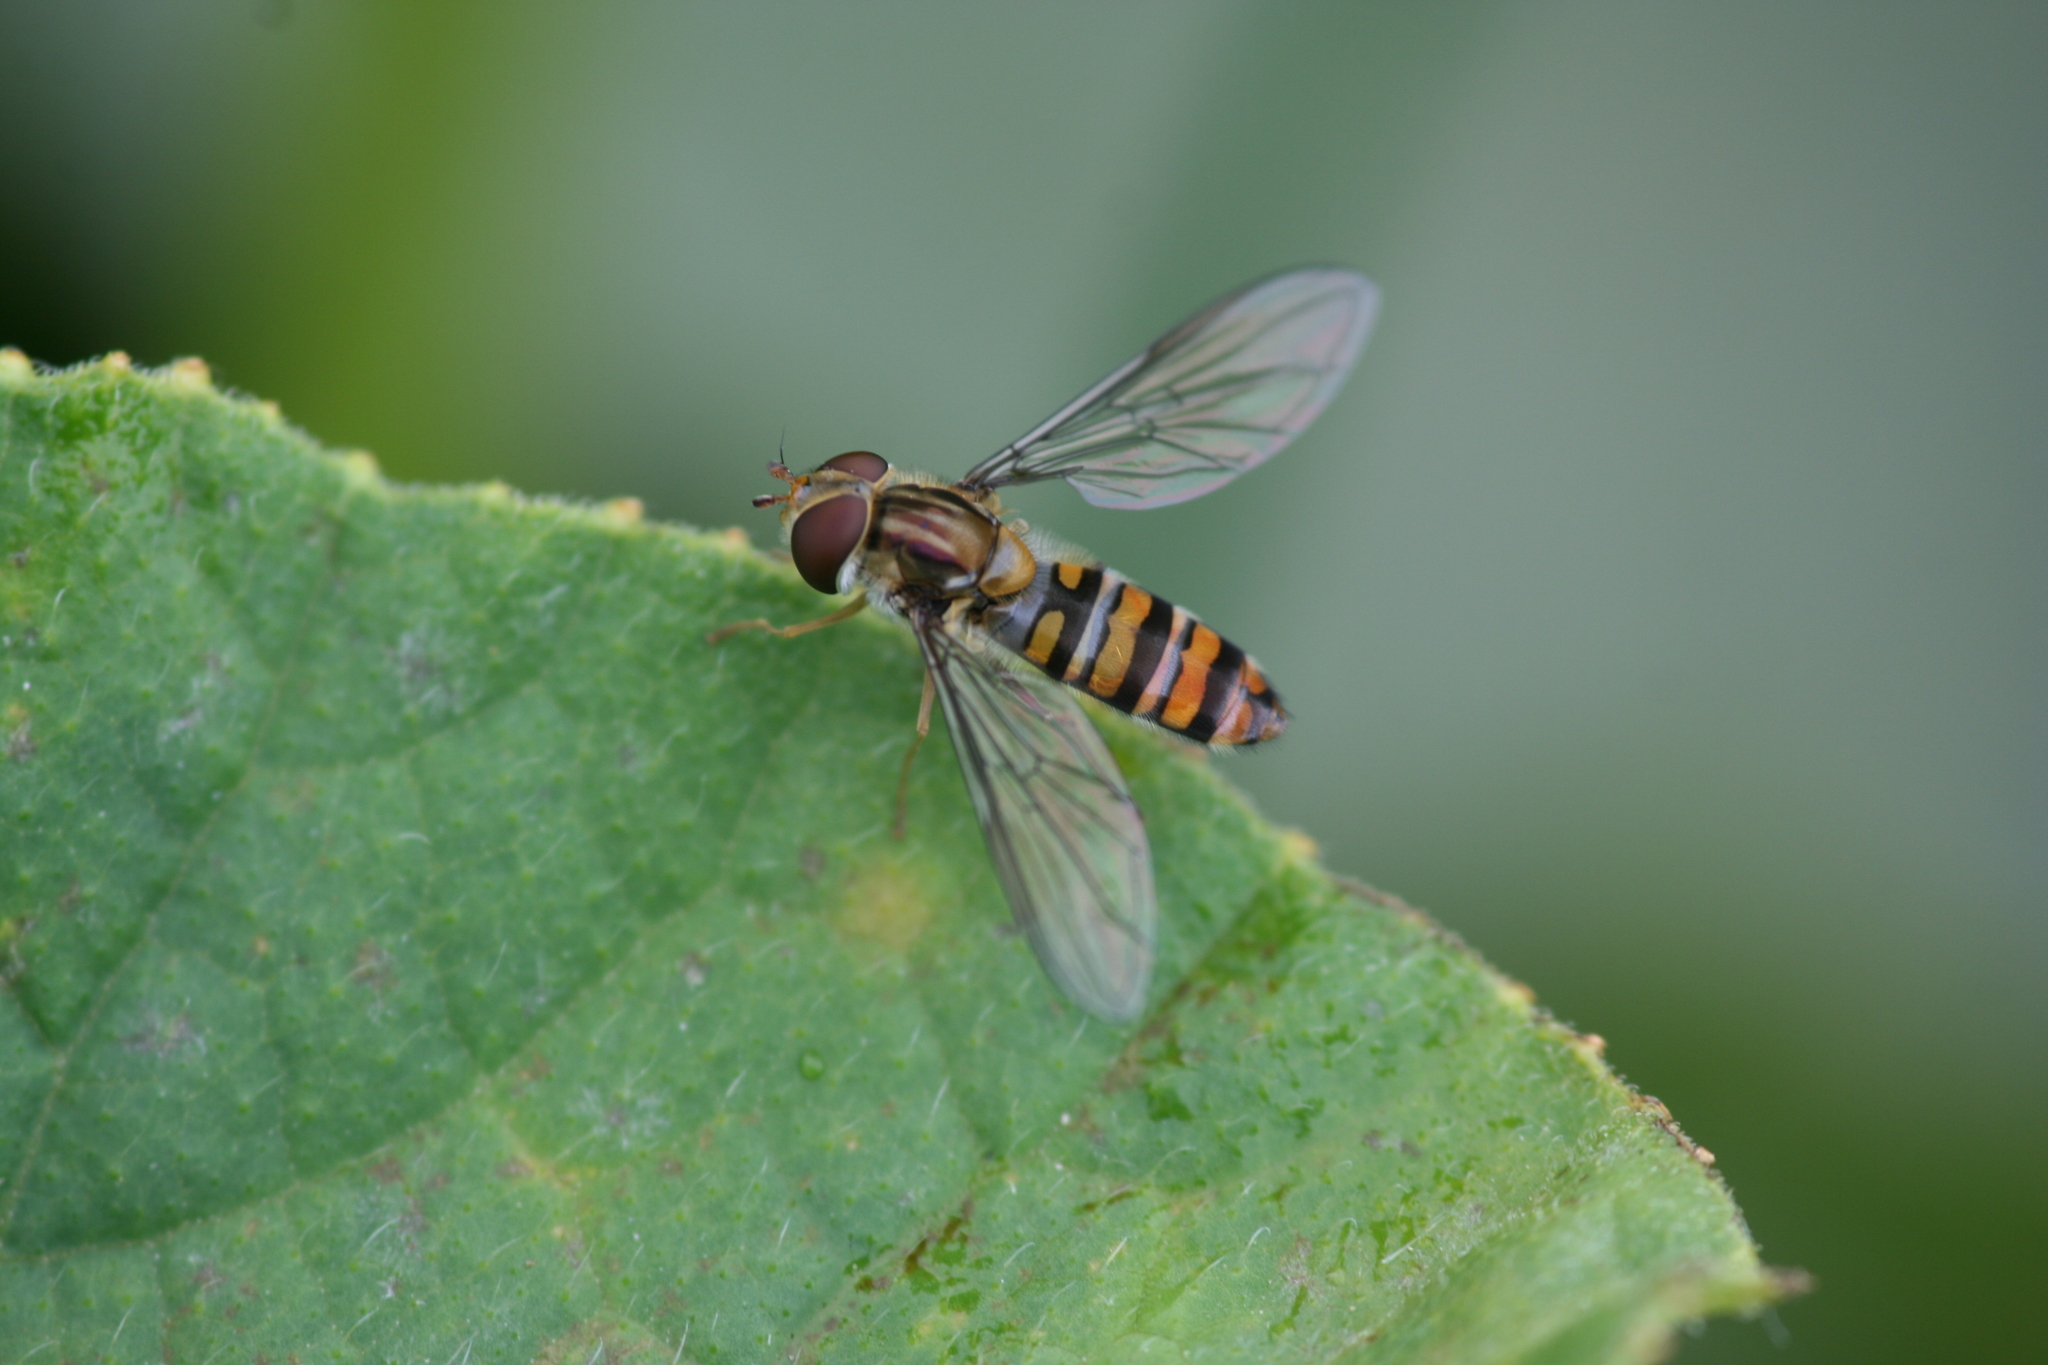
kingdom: Animalia
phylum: Arthropoda
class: Insecta
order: Diptera
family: Syrphidae
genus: Episyrphus
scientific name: Episyrphus balteatus
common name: Marmalade hoverfly
